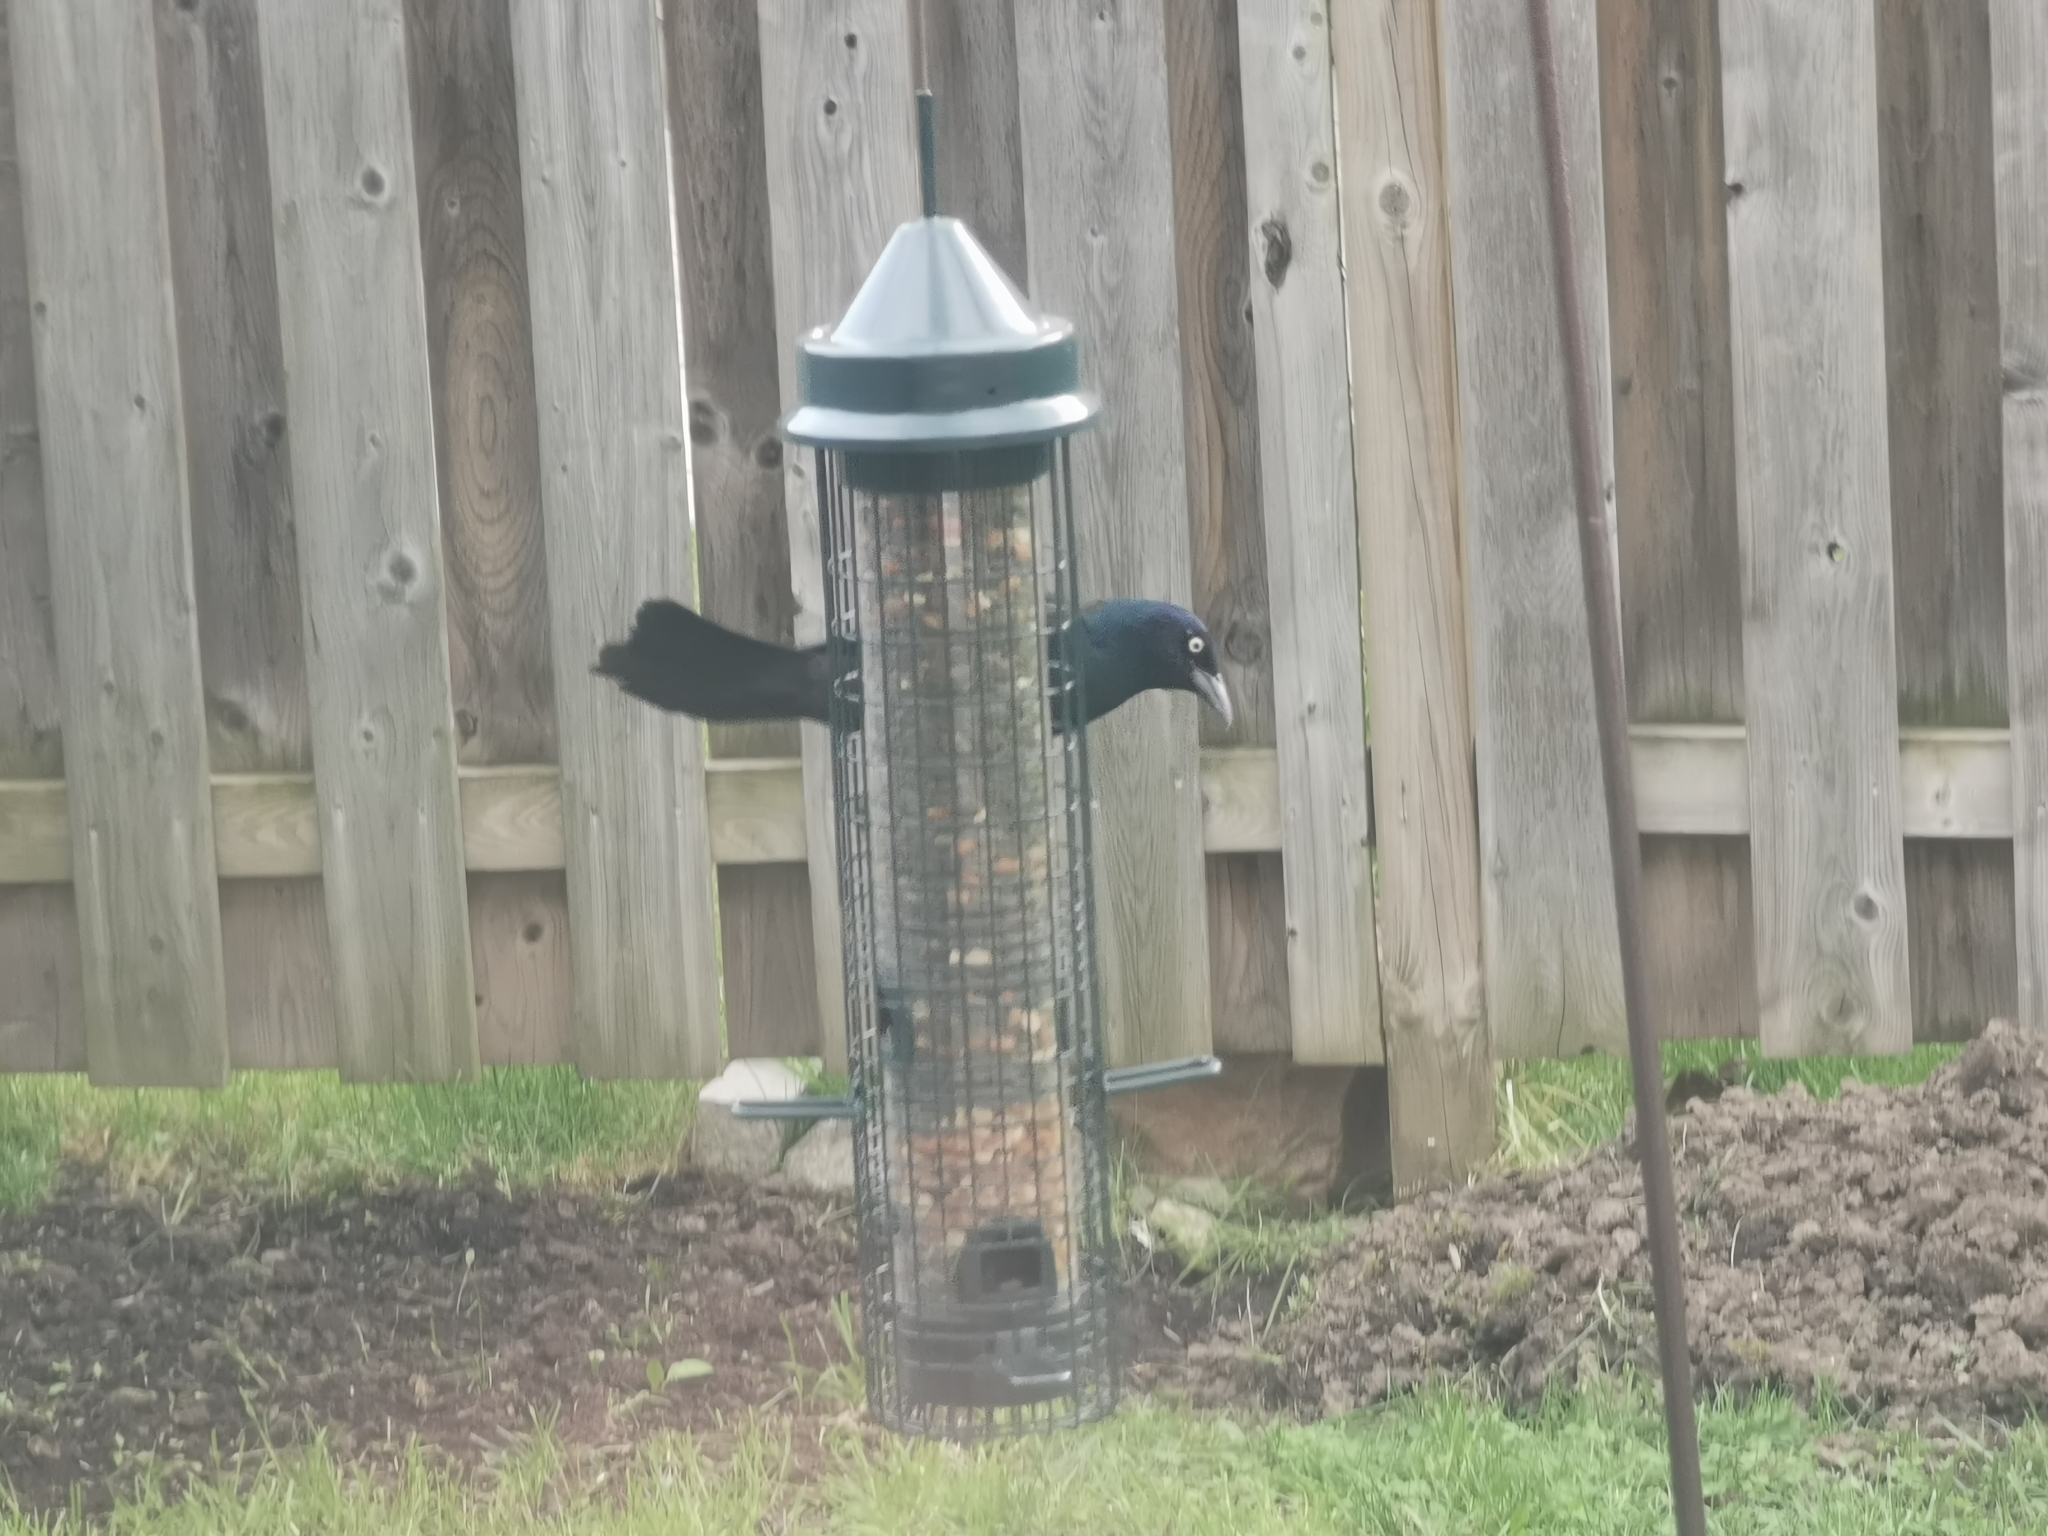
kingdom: Animalia
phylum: Chordata
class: Aves
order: Passeriformes
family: Icteridae
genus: Quiscalus
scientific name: Quiscalus quiscula
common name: Common grackle
